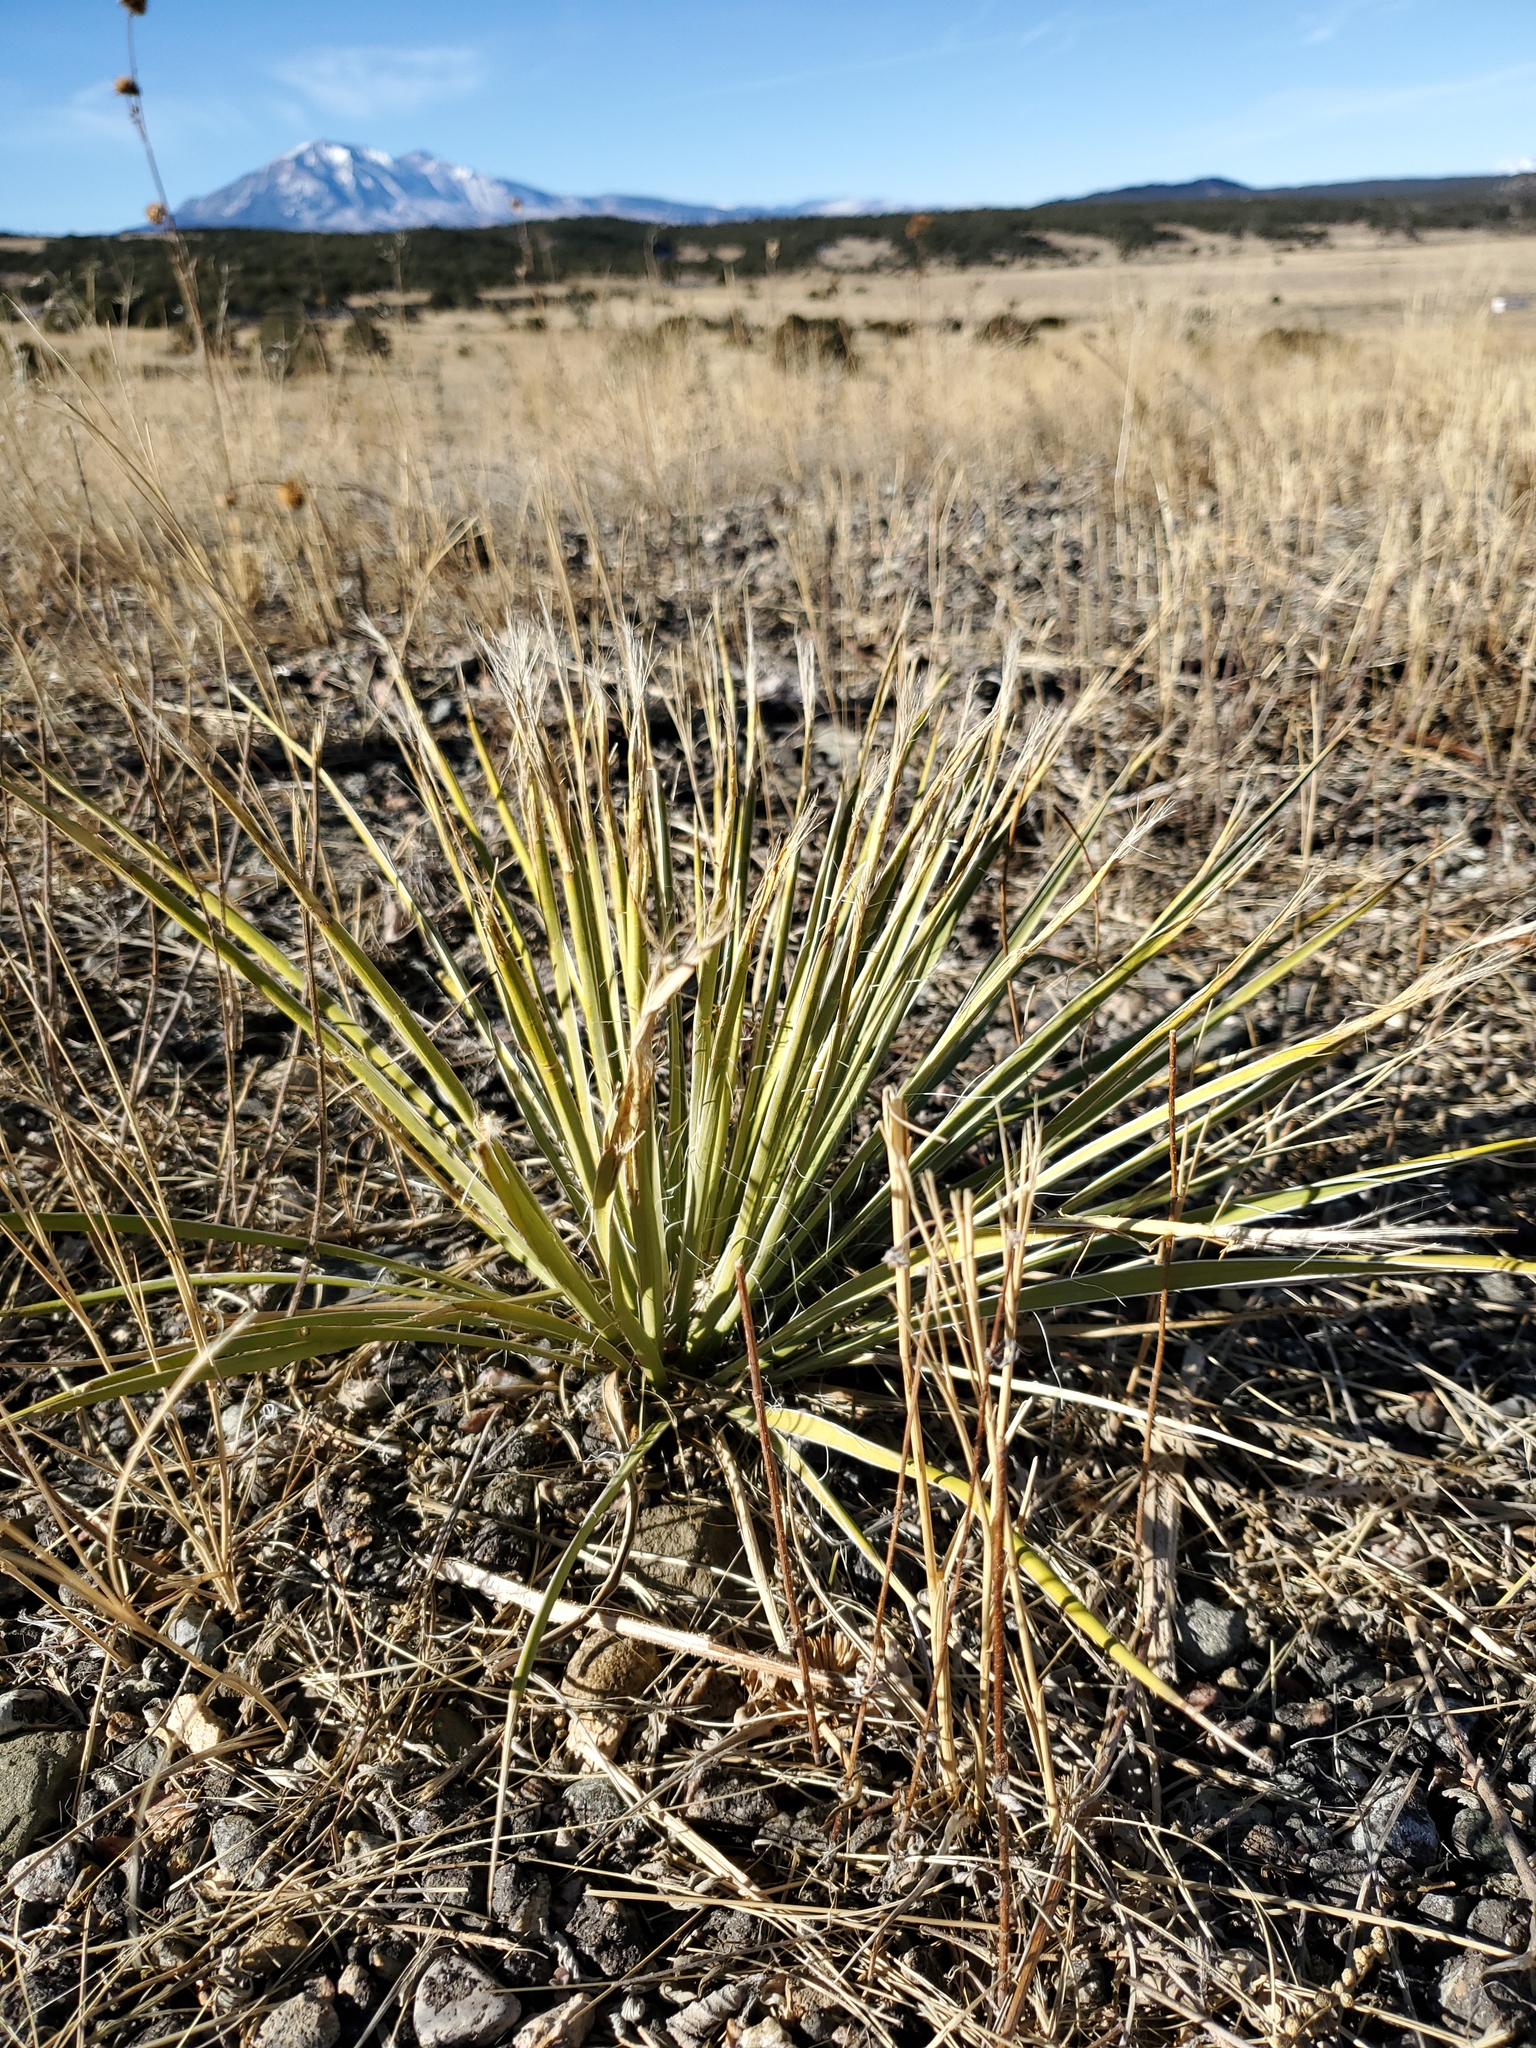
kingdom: Plantae
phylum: Tracheophyta
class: Liliopsida
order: Asparagales
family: Asparagaceae
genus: Yucca
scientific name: Yucca glauca
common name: Great plains yucca
